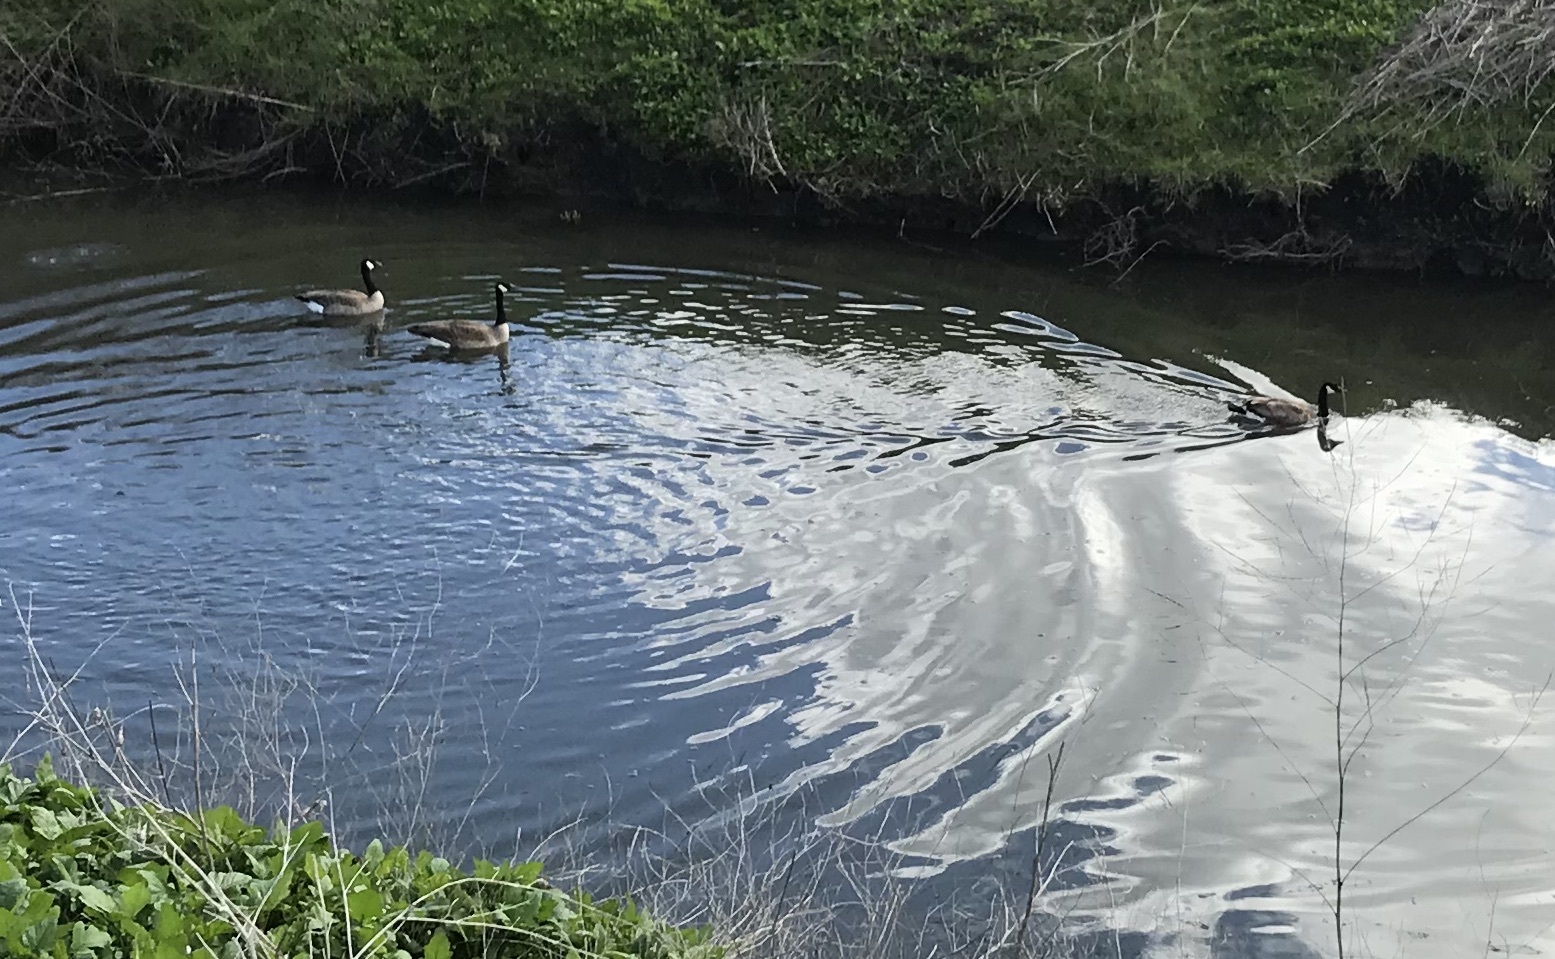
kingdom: Animalia
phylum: Chordata
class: Aves
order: Anseriformes
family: Anatidae
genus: Branta
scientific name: Branta canadensis
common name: Canada goose
